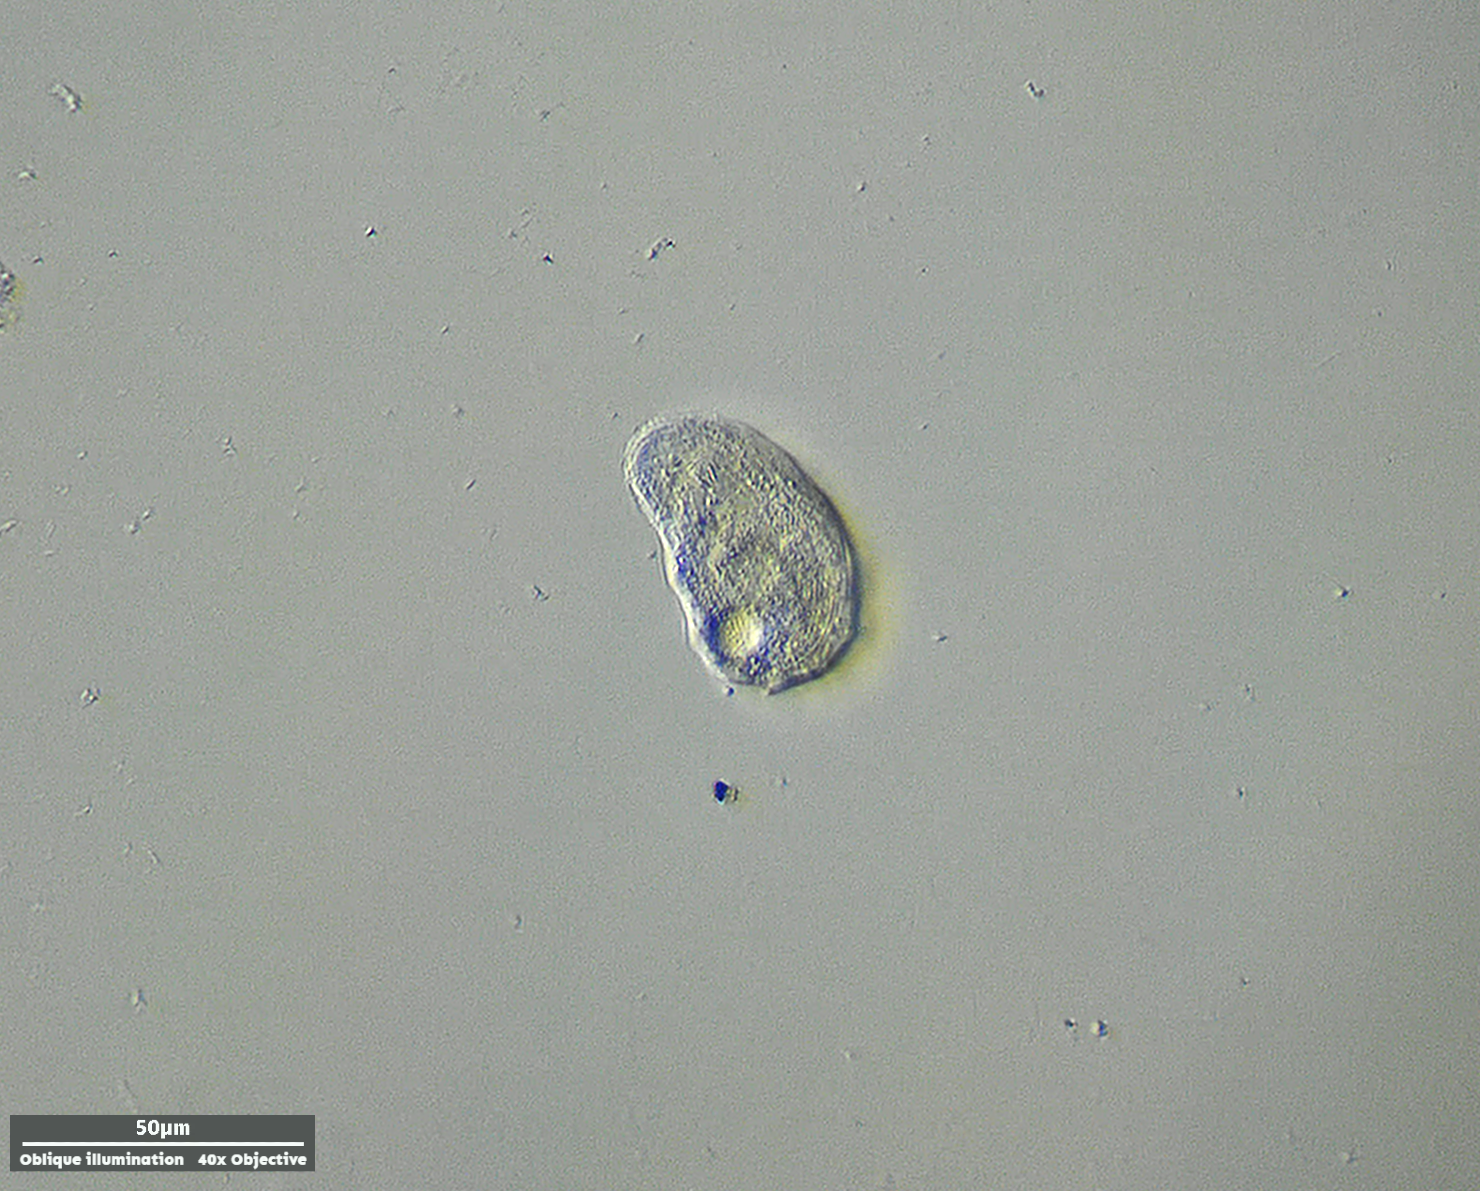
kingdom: Chromista
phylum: Ciliophora
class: Cyrtophoria
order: Cyrtophorida
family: Chilodonellidae
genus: Odontochlamys
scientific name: Odontochlamys gouraudi
